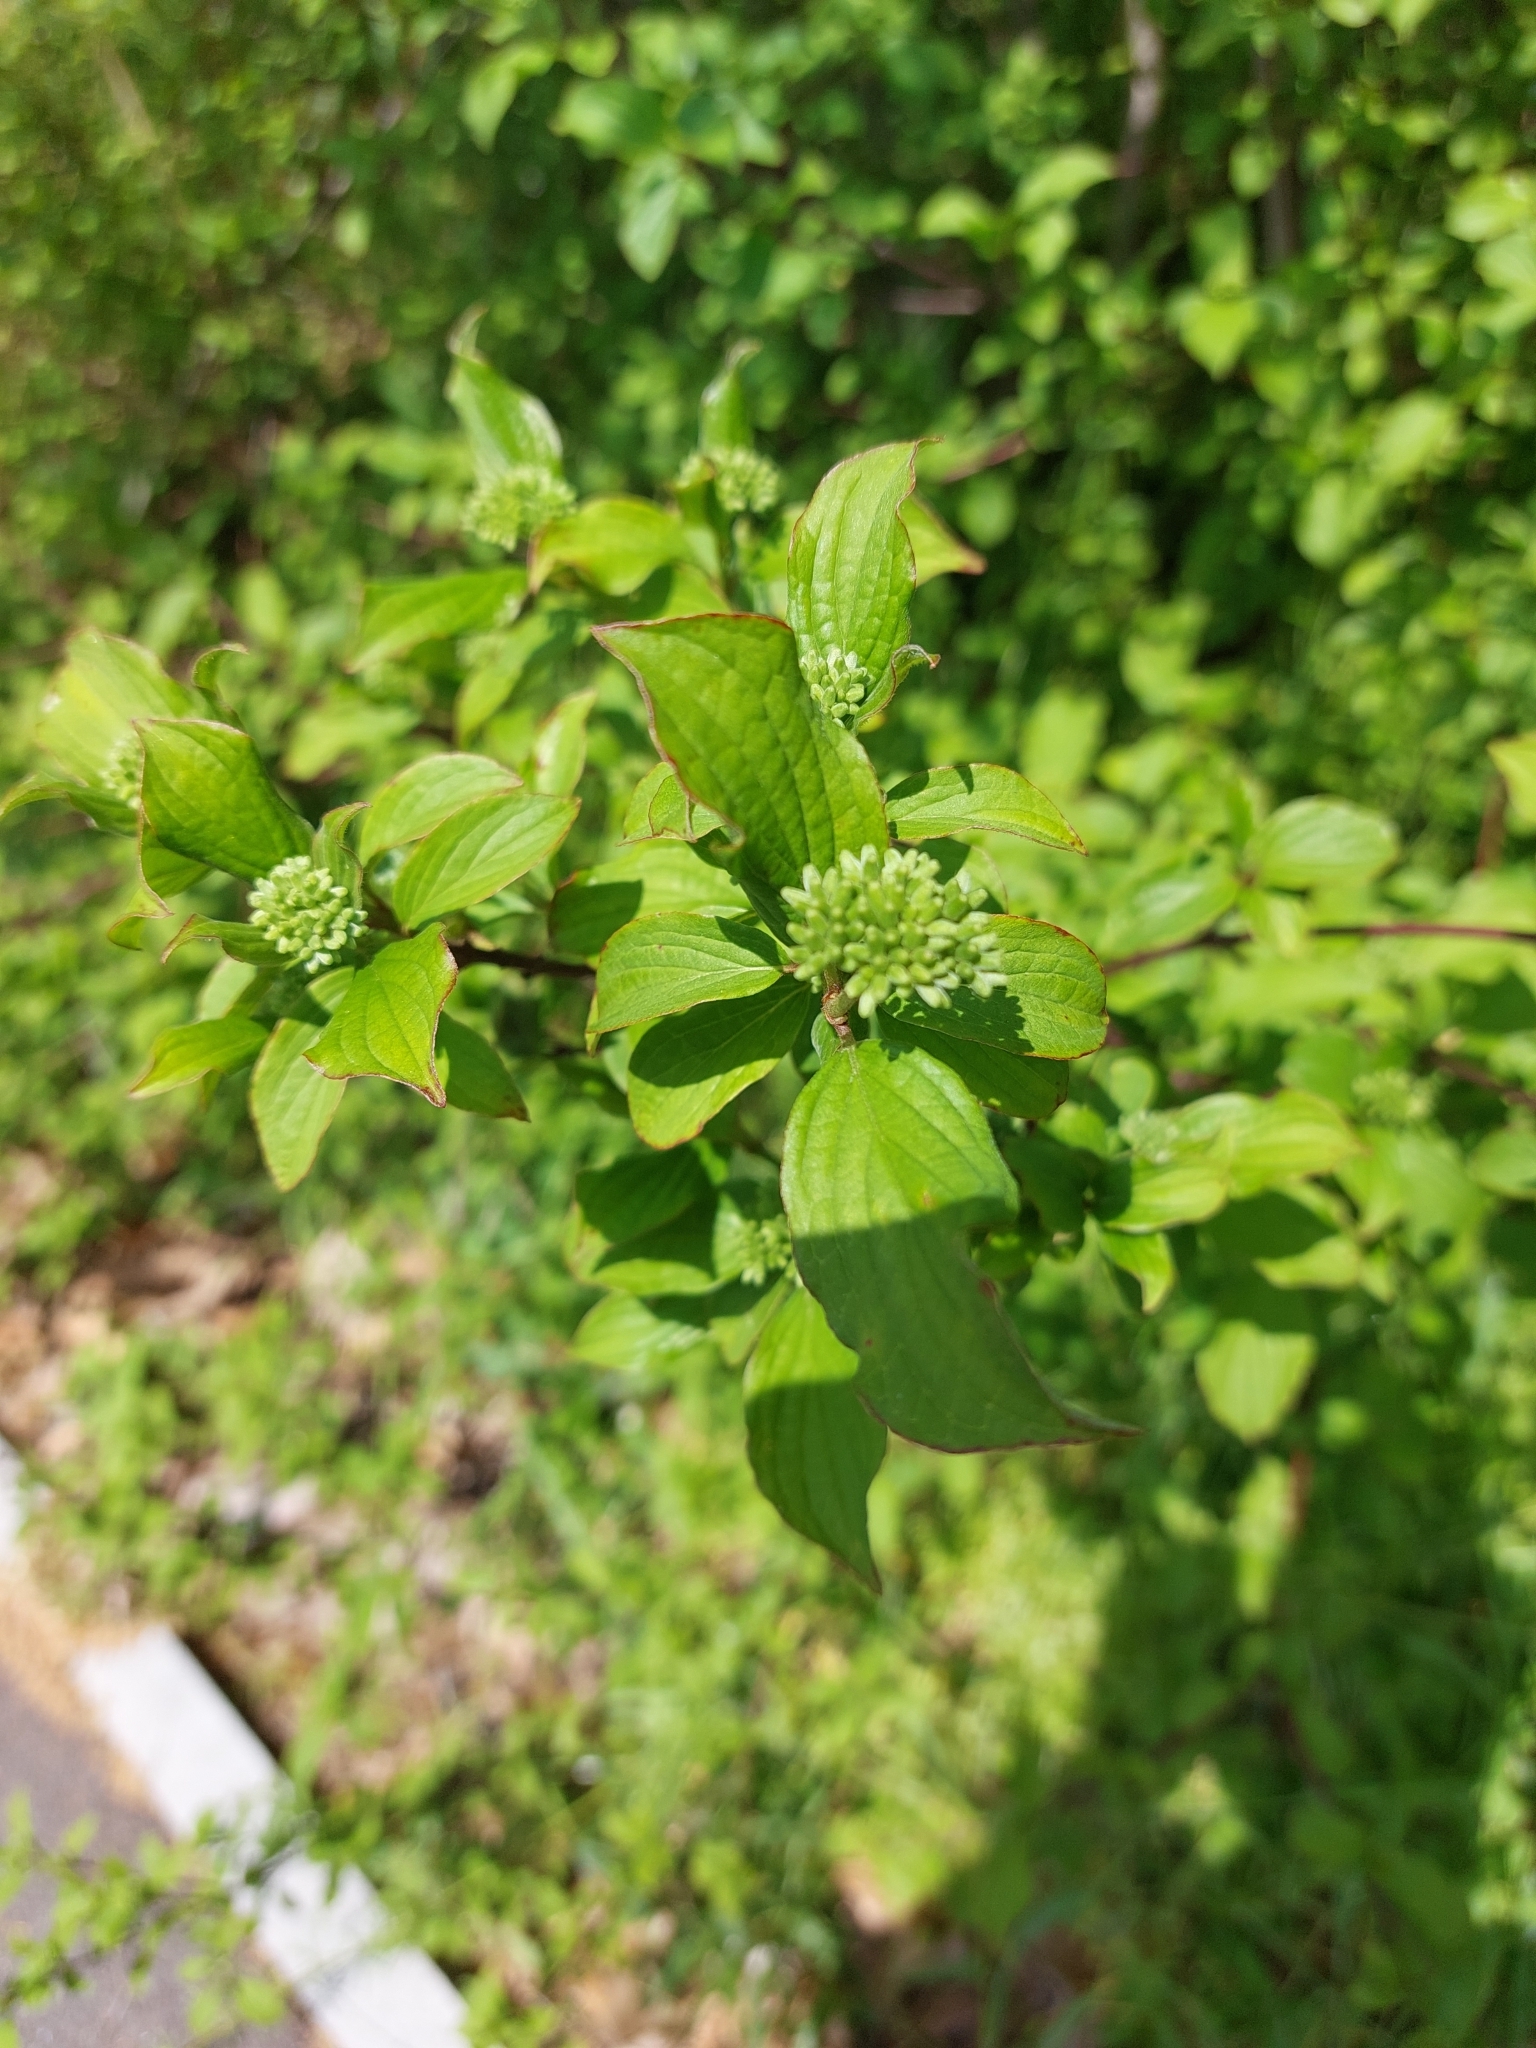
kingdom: Plantae
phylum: Tracheophyta
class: Magnoliopsida
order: Cornales
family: Cornaceae
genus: Cornus
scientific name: Cornus sanguinea
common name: Dogwood
